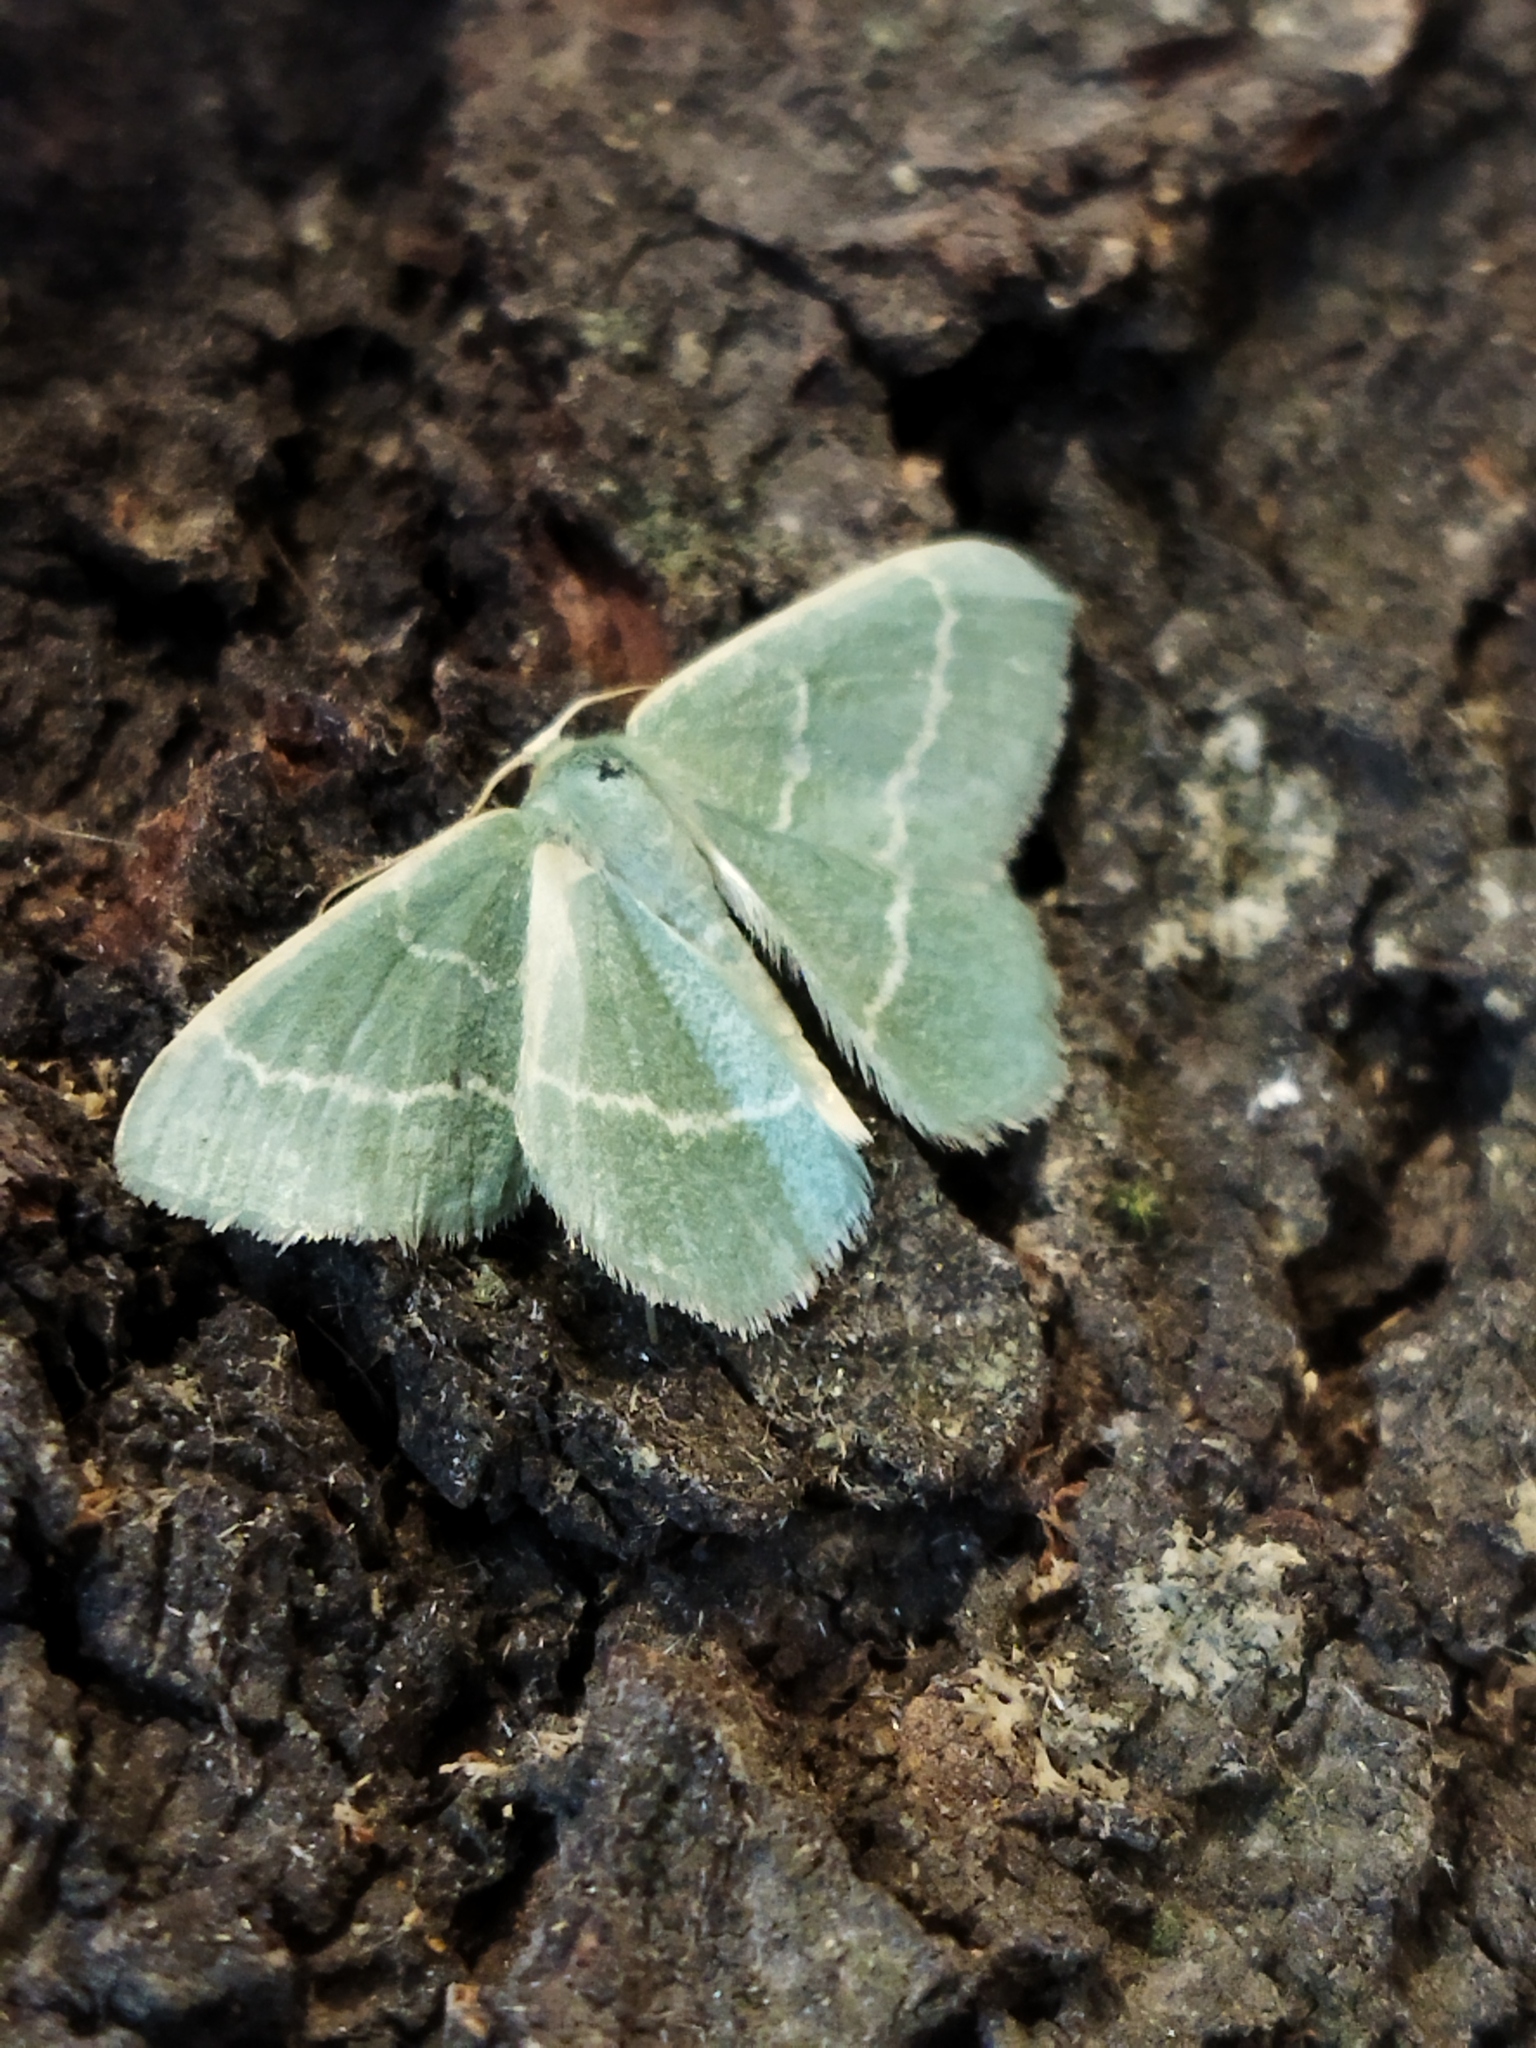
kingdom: Animalia
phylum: Arthropoda
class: Insecta
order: Lepidoptera
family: Geometridae
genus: Chlorissa
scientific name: Chlorissa
